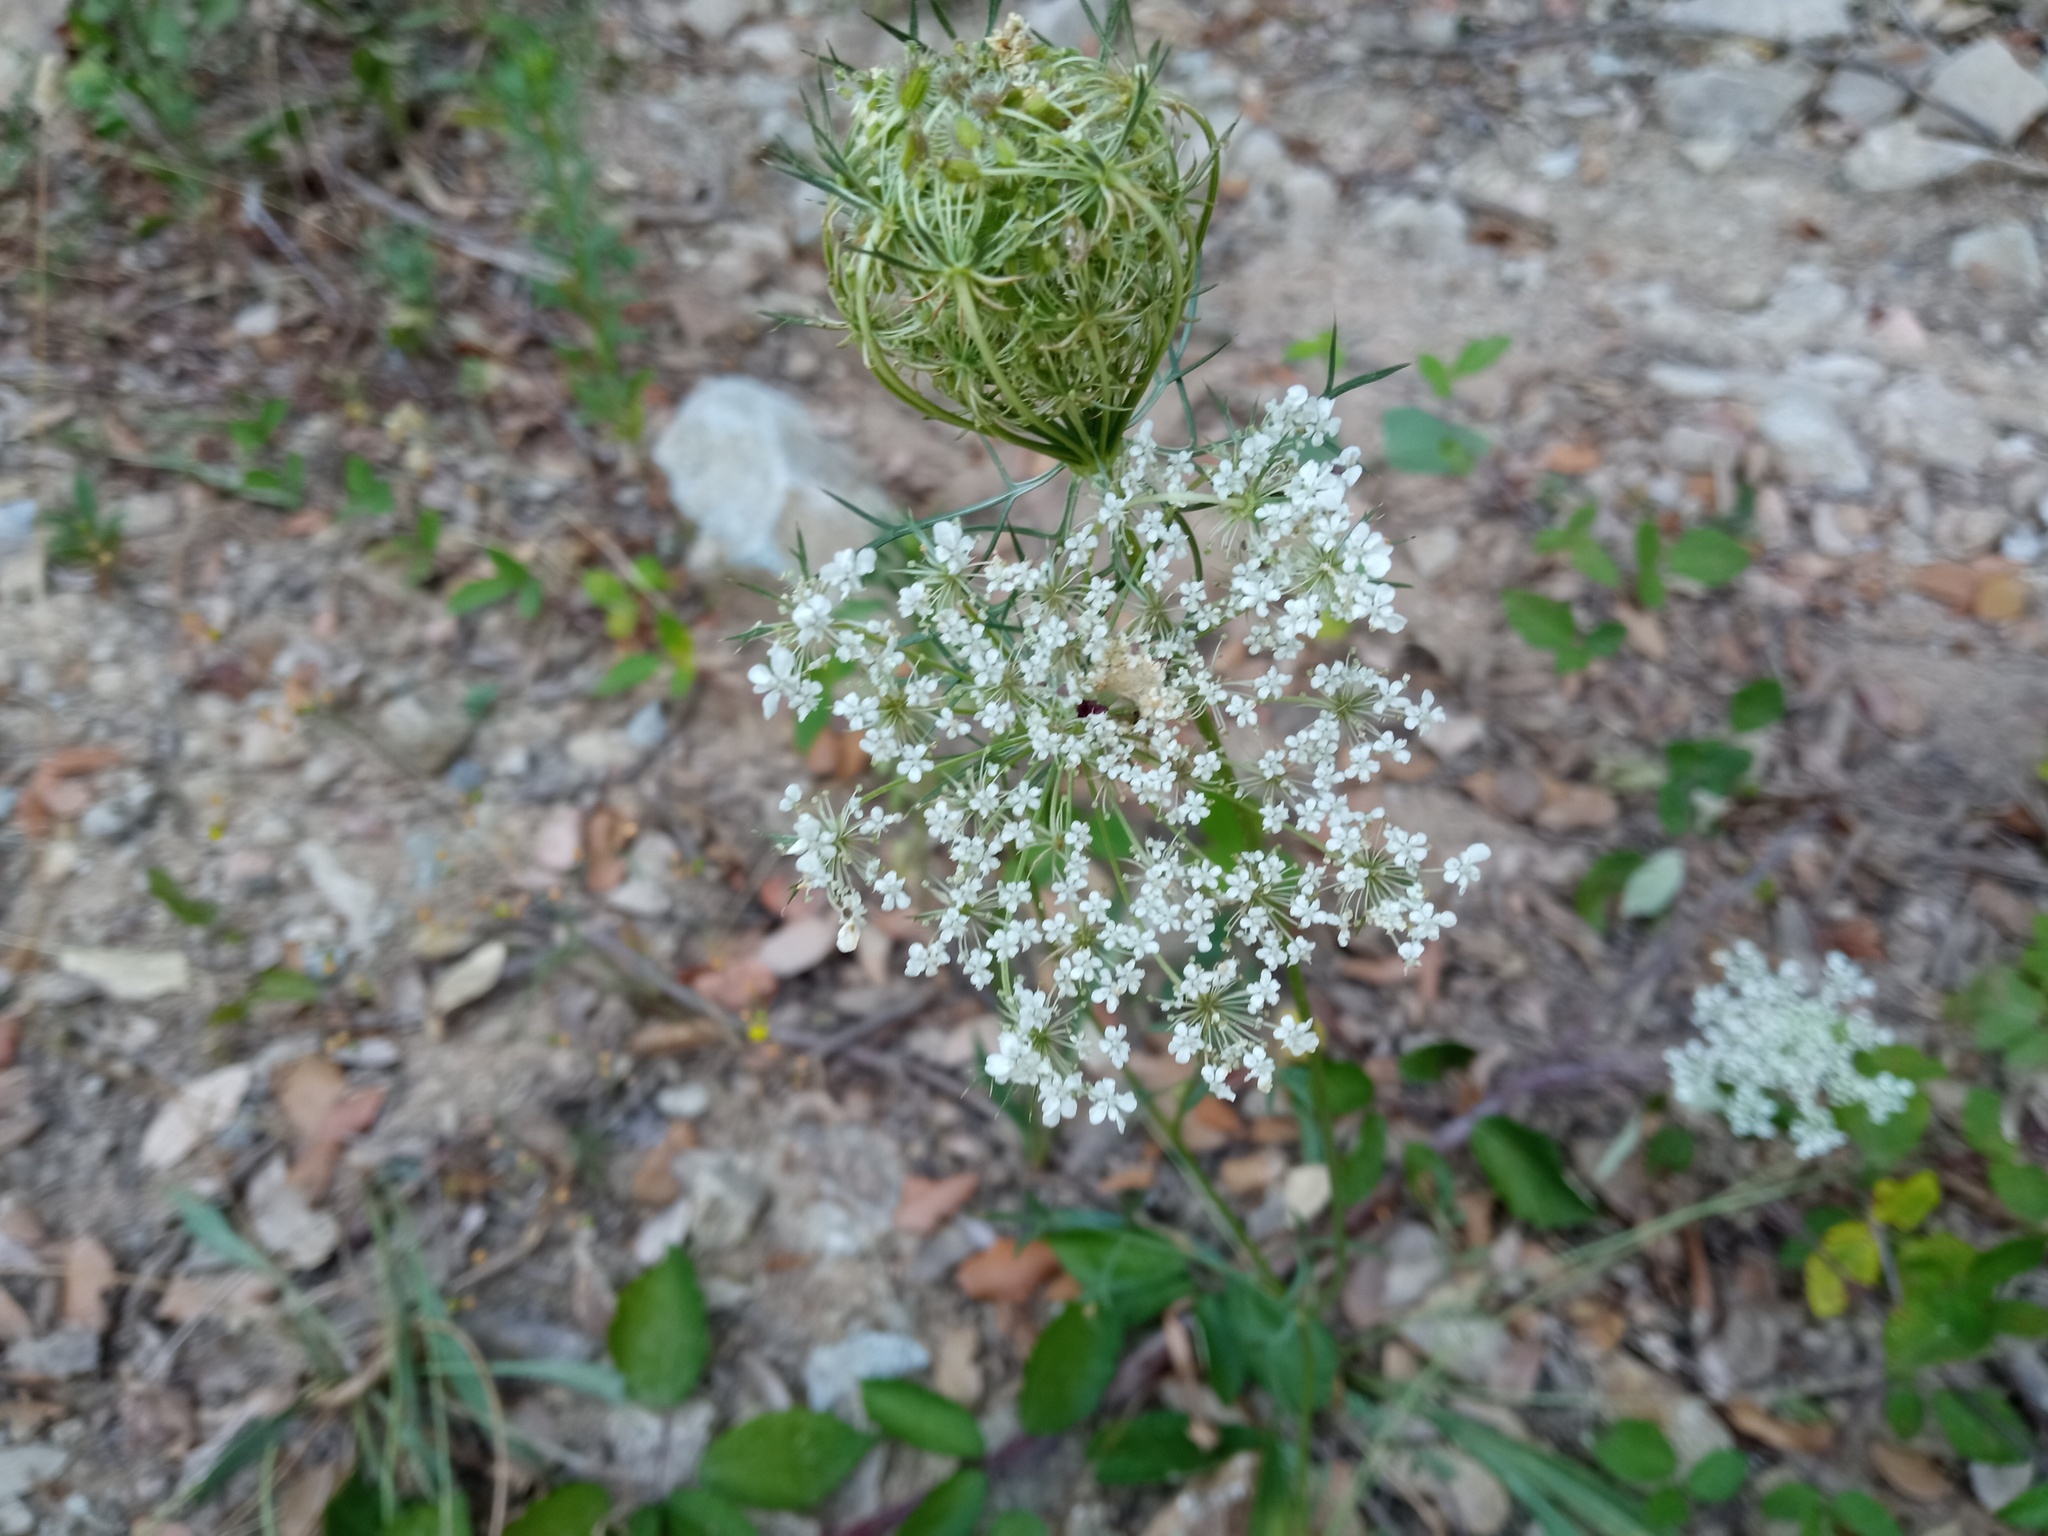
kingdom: Plantae
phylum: Tracheophyta
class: Magnoliopsida
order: Apiales
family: Apiaceae
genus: Daucus
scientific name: Daucus carota
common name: Wild carrot
